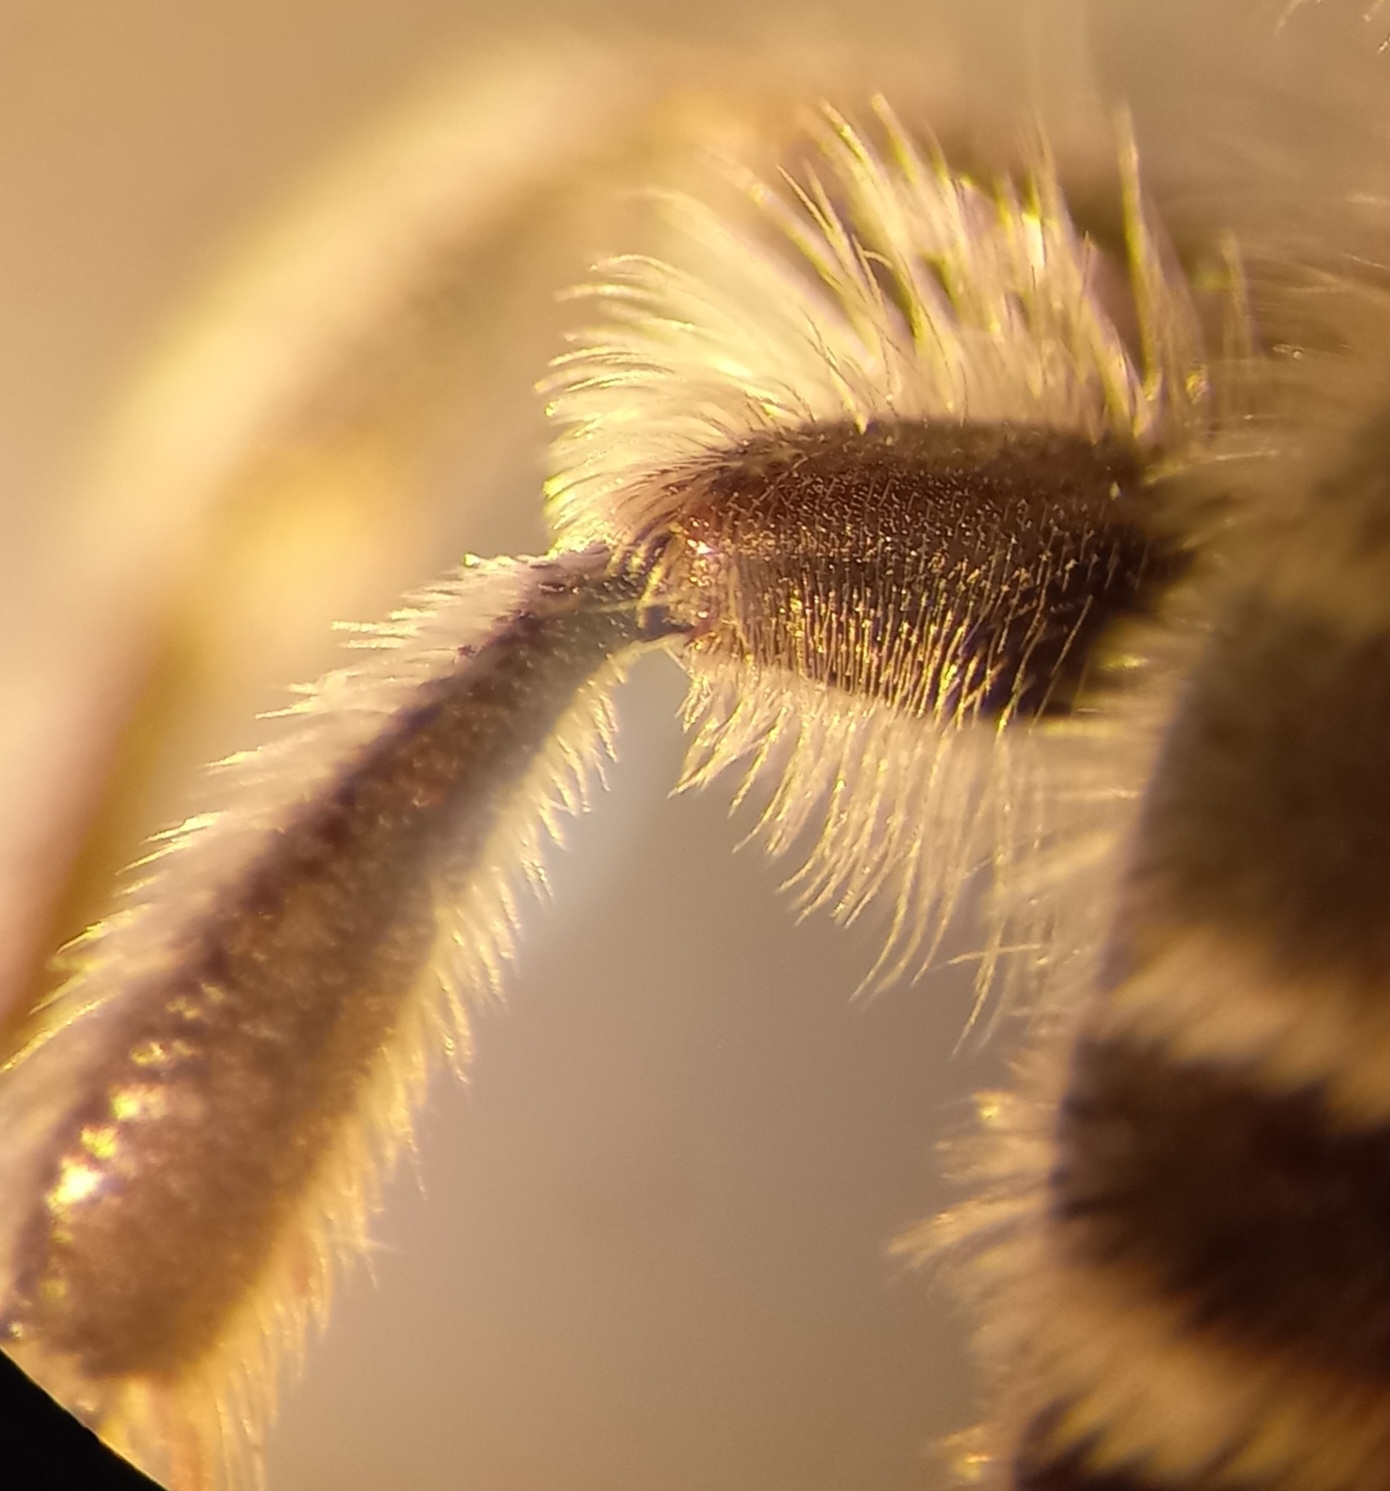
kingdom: Animalia
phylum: Arthropoda
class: Insecta
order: Hymenoptera
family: Melittidae
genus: Melitta
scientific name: Melitta leporina
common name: Clover melitta
